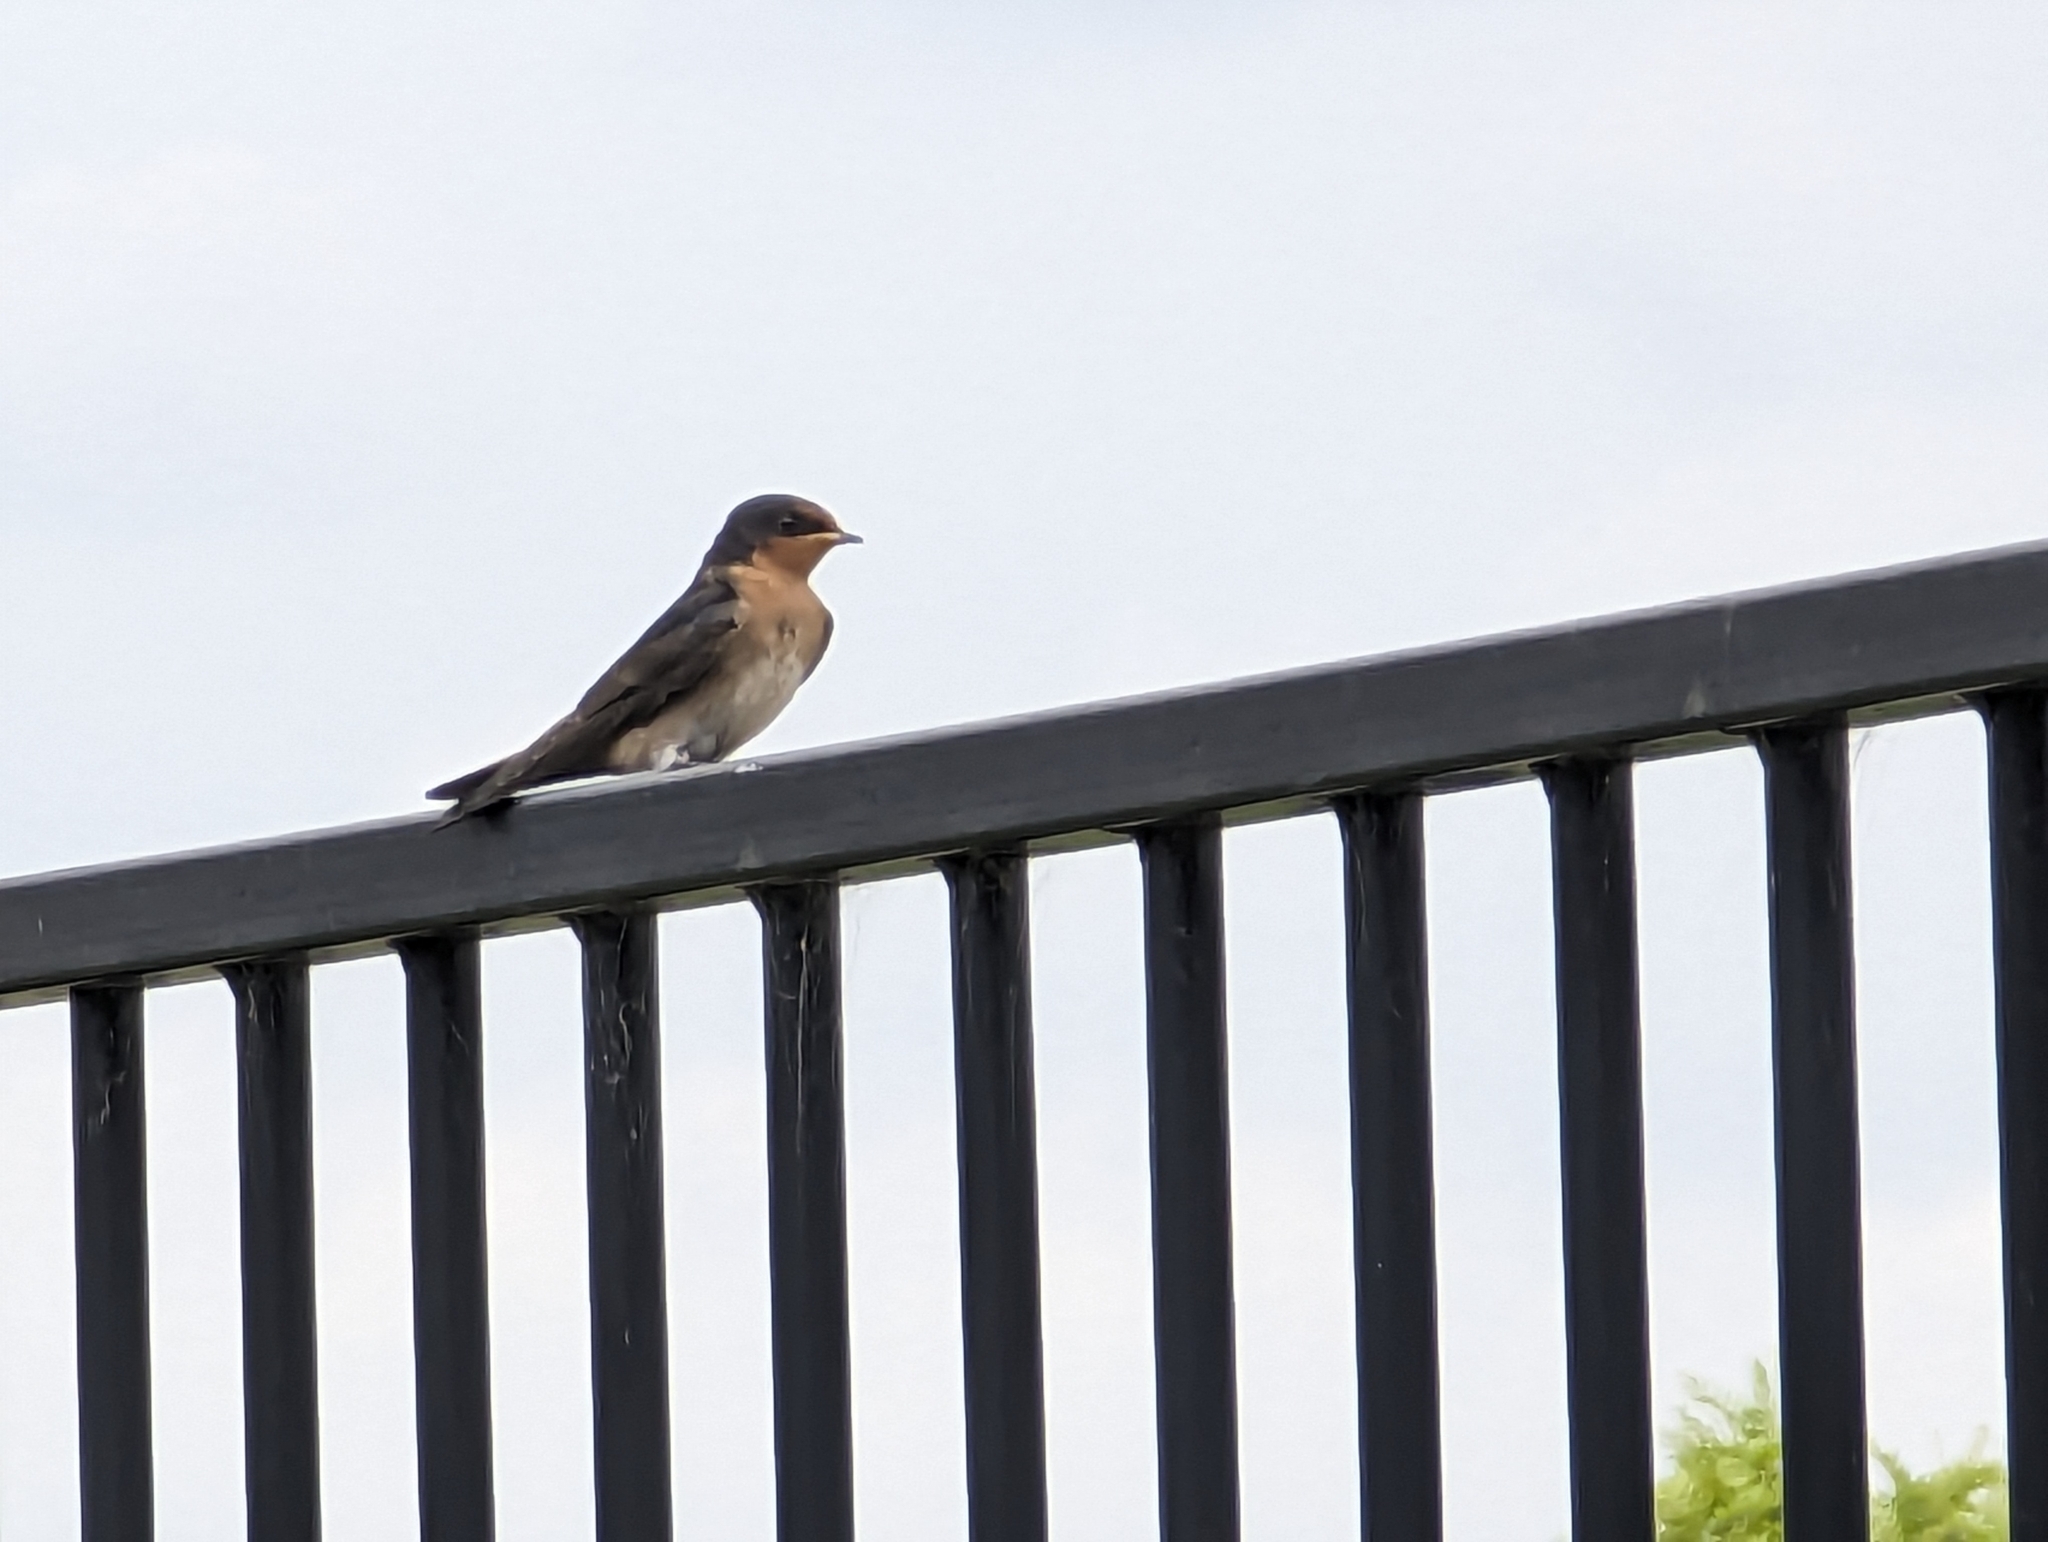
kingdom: Animalia
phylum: Chordata
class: Aves
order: Passeriformes
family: Hirundinidae
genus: Hirundo
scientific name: Hirundo neoxena
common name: Welcome swallow
